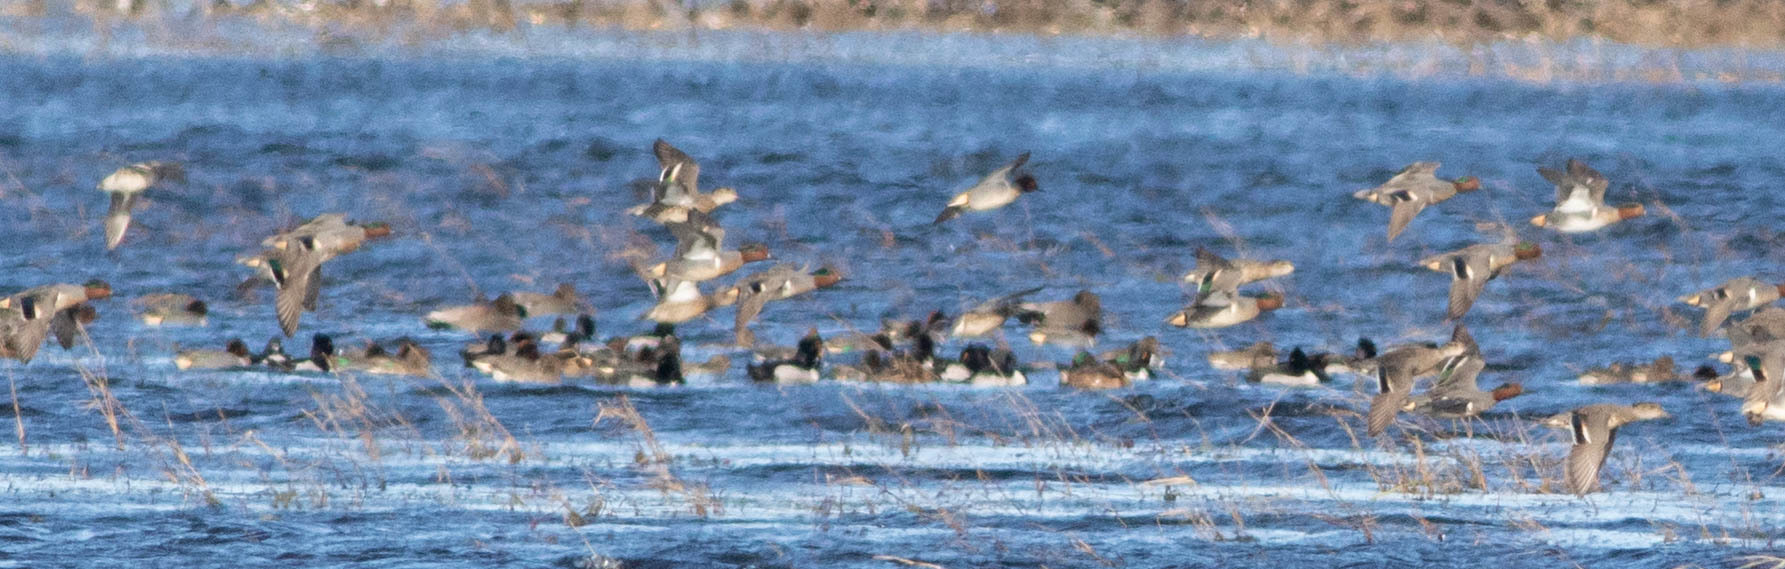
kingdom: Animalia
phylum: Chordata
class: Aves
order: Anseriformes
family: Anatidae
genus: Anas
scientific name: Anas crecca
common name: Eurasian teal
